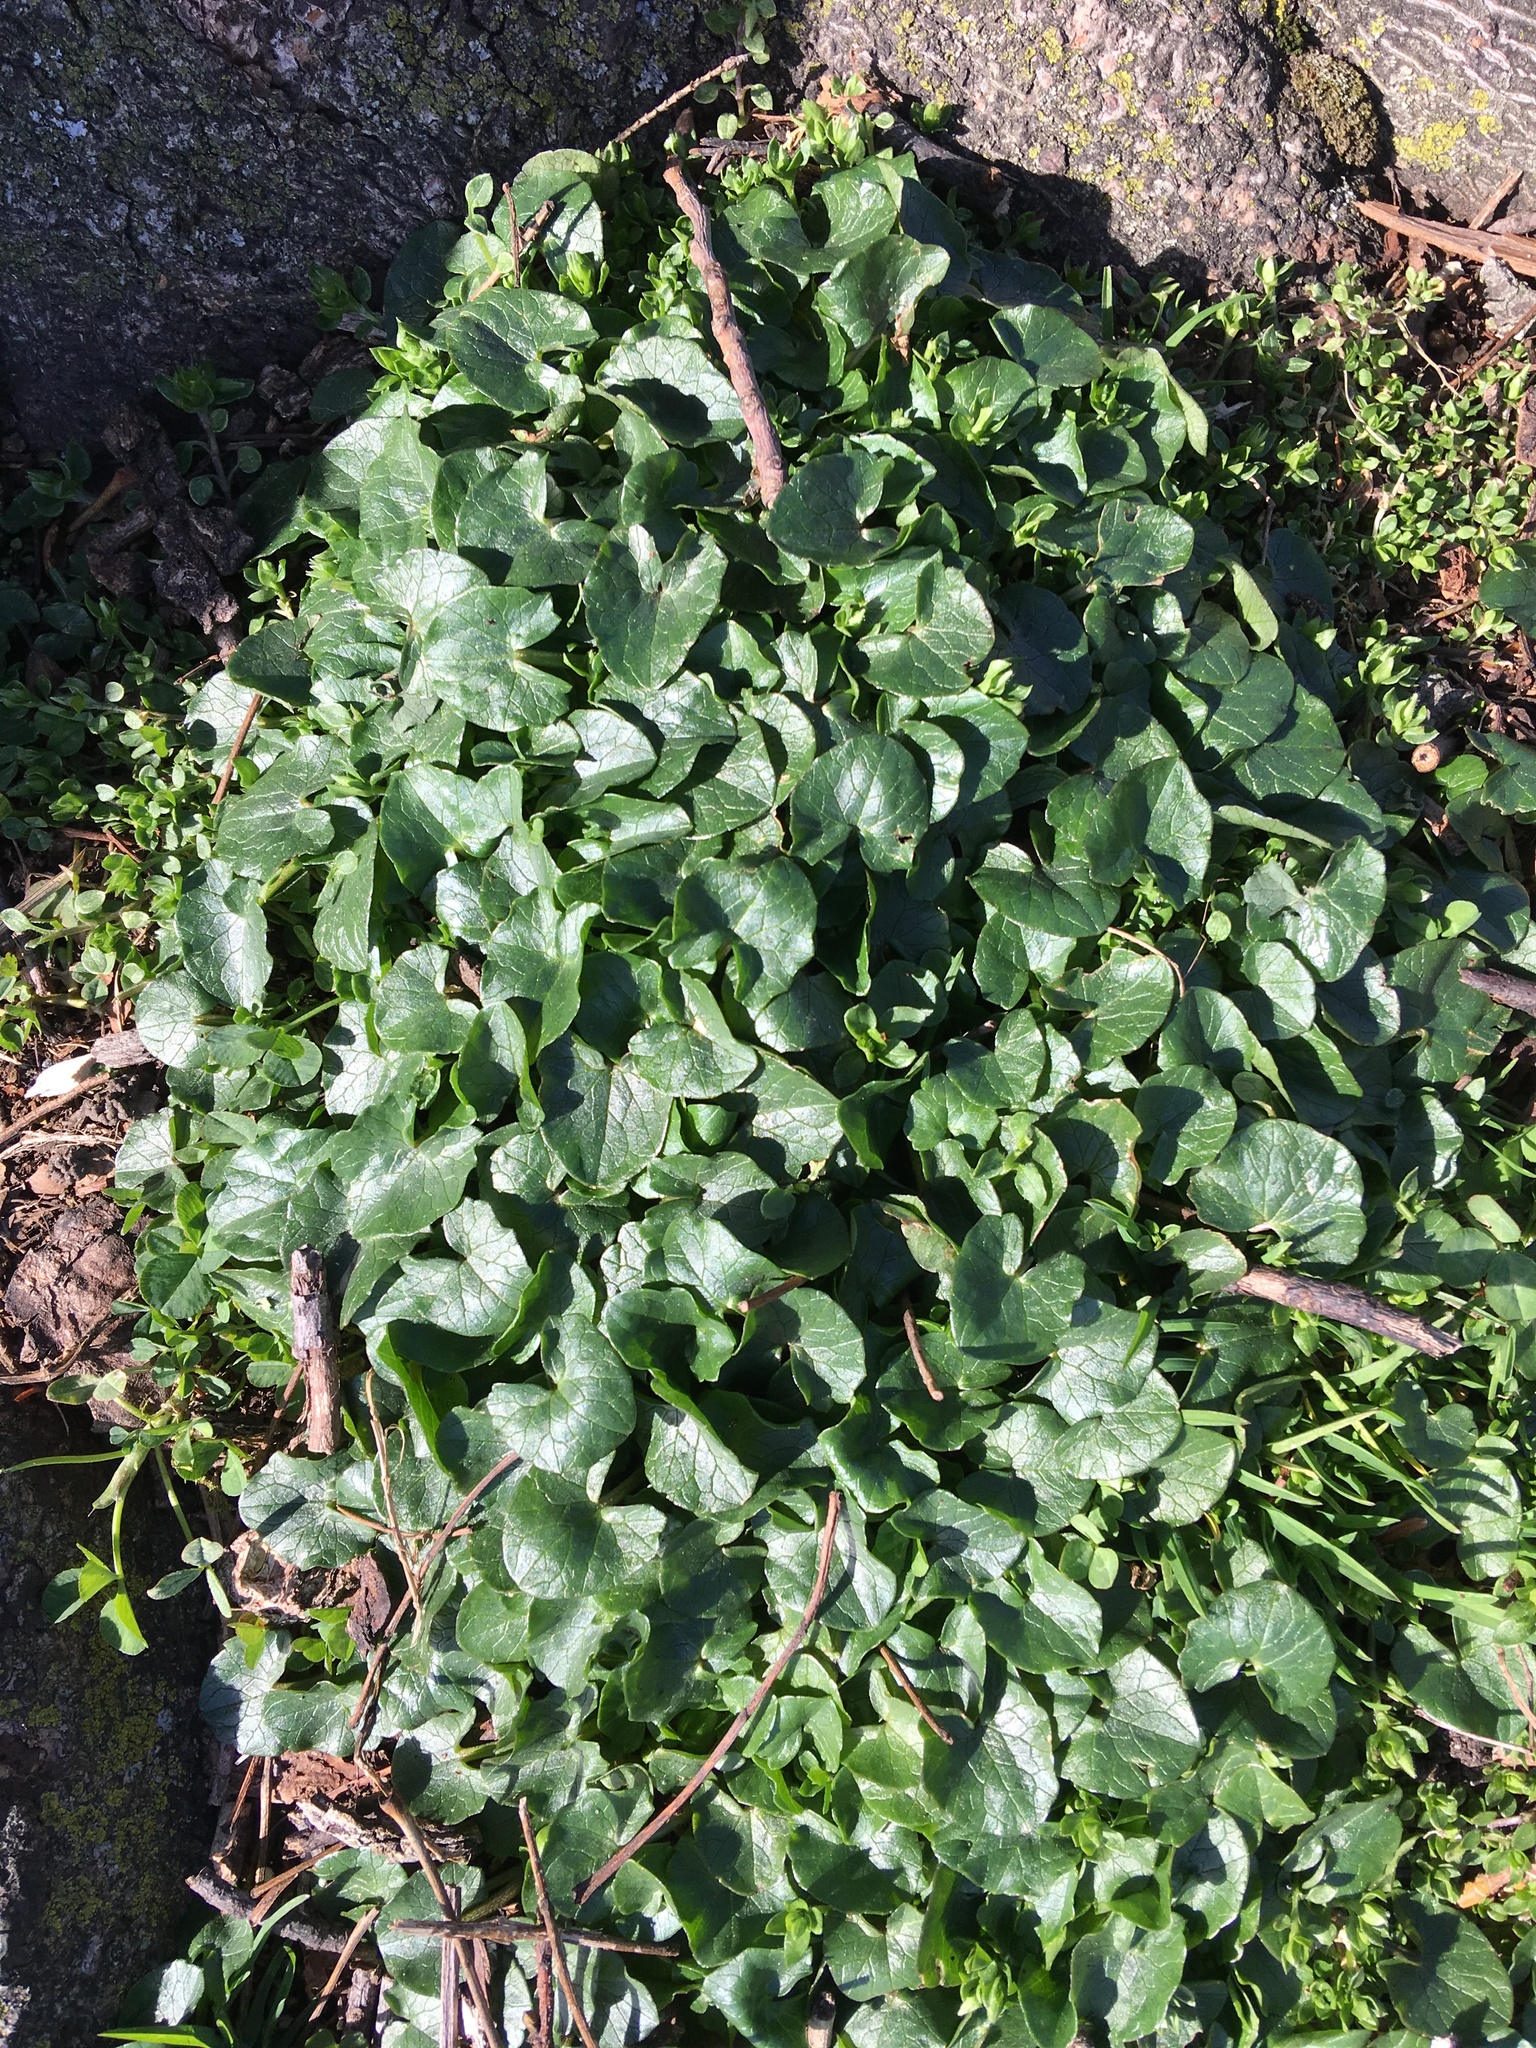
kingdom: Plantae
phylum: Tracheophyta
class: Magnoliopsida
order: Ranunculales
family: Ranunculaceae
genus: Ficaria
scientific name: Ficaria verna
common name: Lesser celandine
